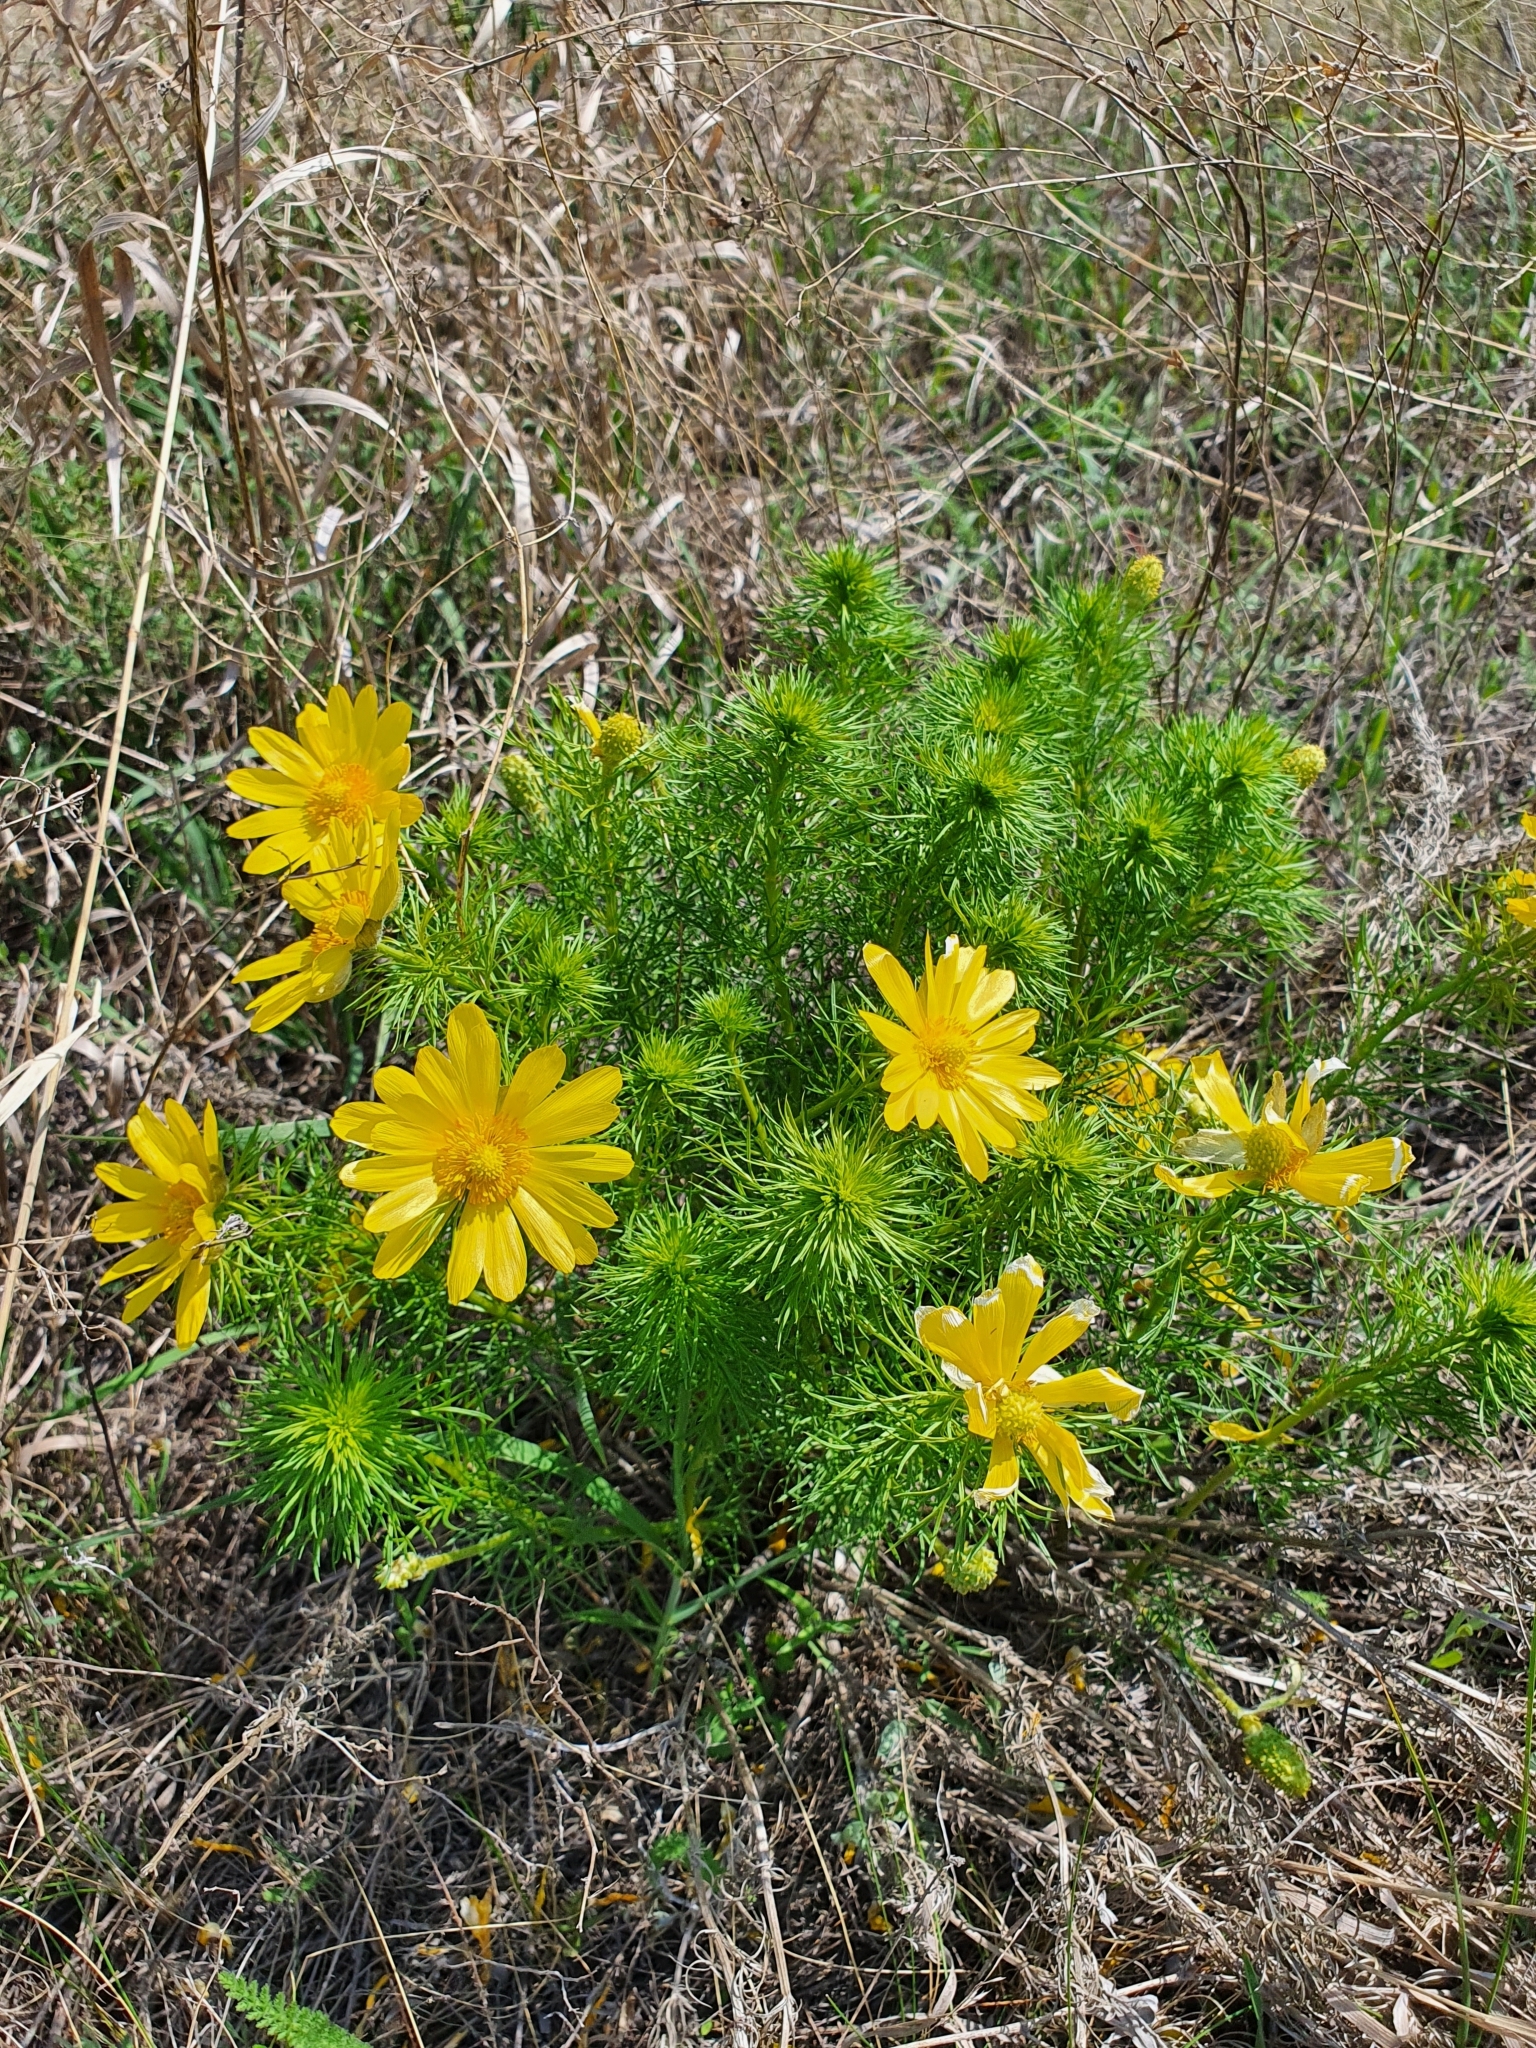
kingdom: Plantae
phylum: Tracheophyta
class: Magnoliopsida
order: Ranunculales
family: Ranunculaceae
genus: Adonis
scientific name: Adonis vernalis
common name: Yellow pheasants-eye
